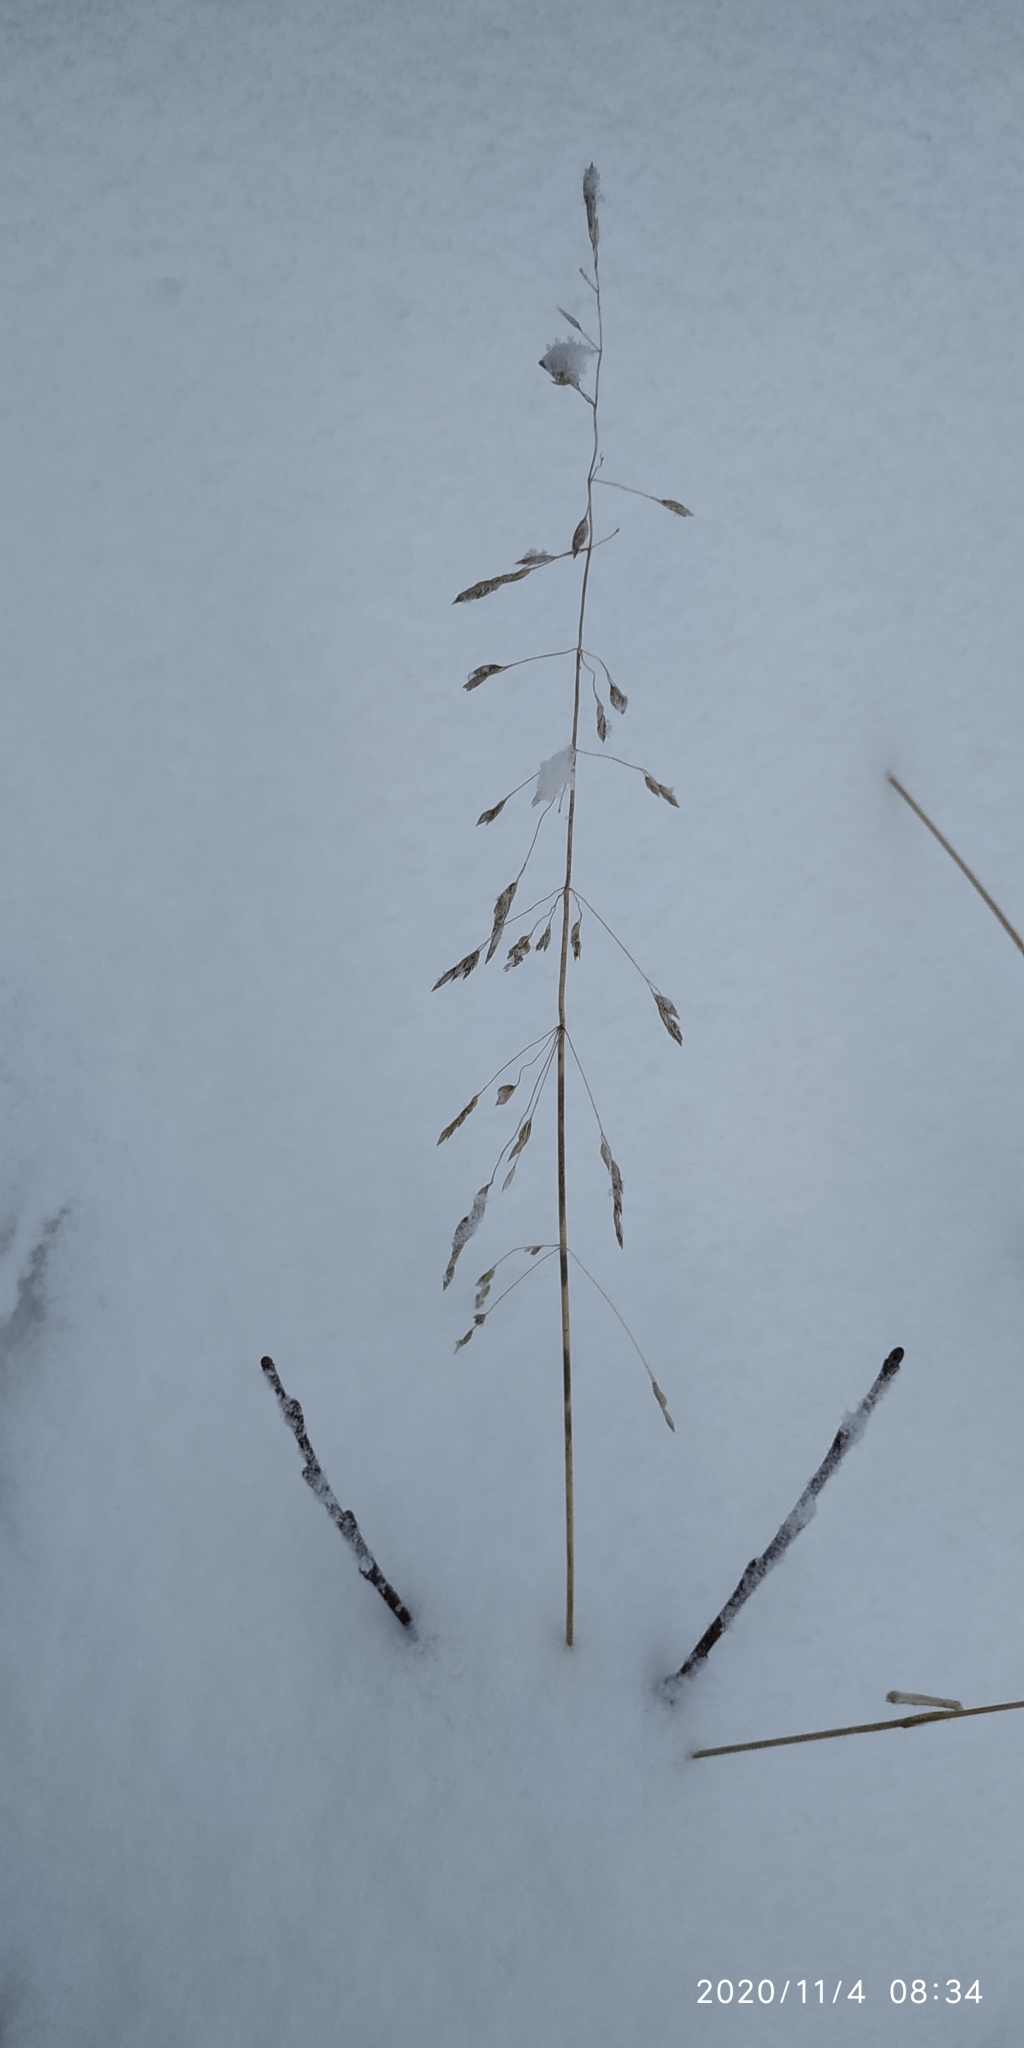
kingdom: Plantae
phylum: Tracheophyta
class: Liliopsida
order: Poales
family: Poaceae
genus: Dupontia
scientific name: Dupontia fulva
